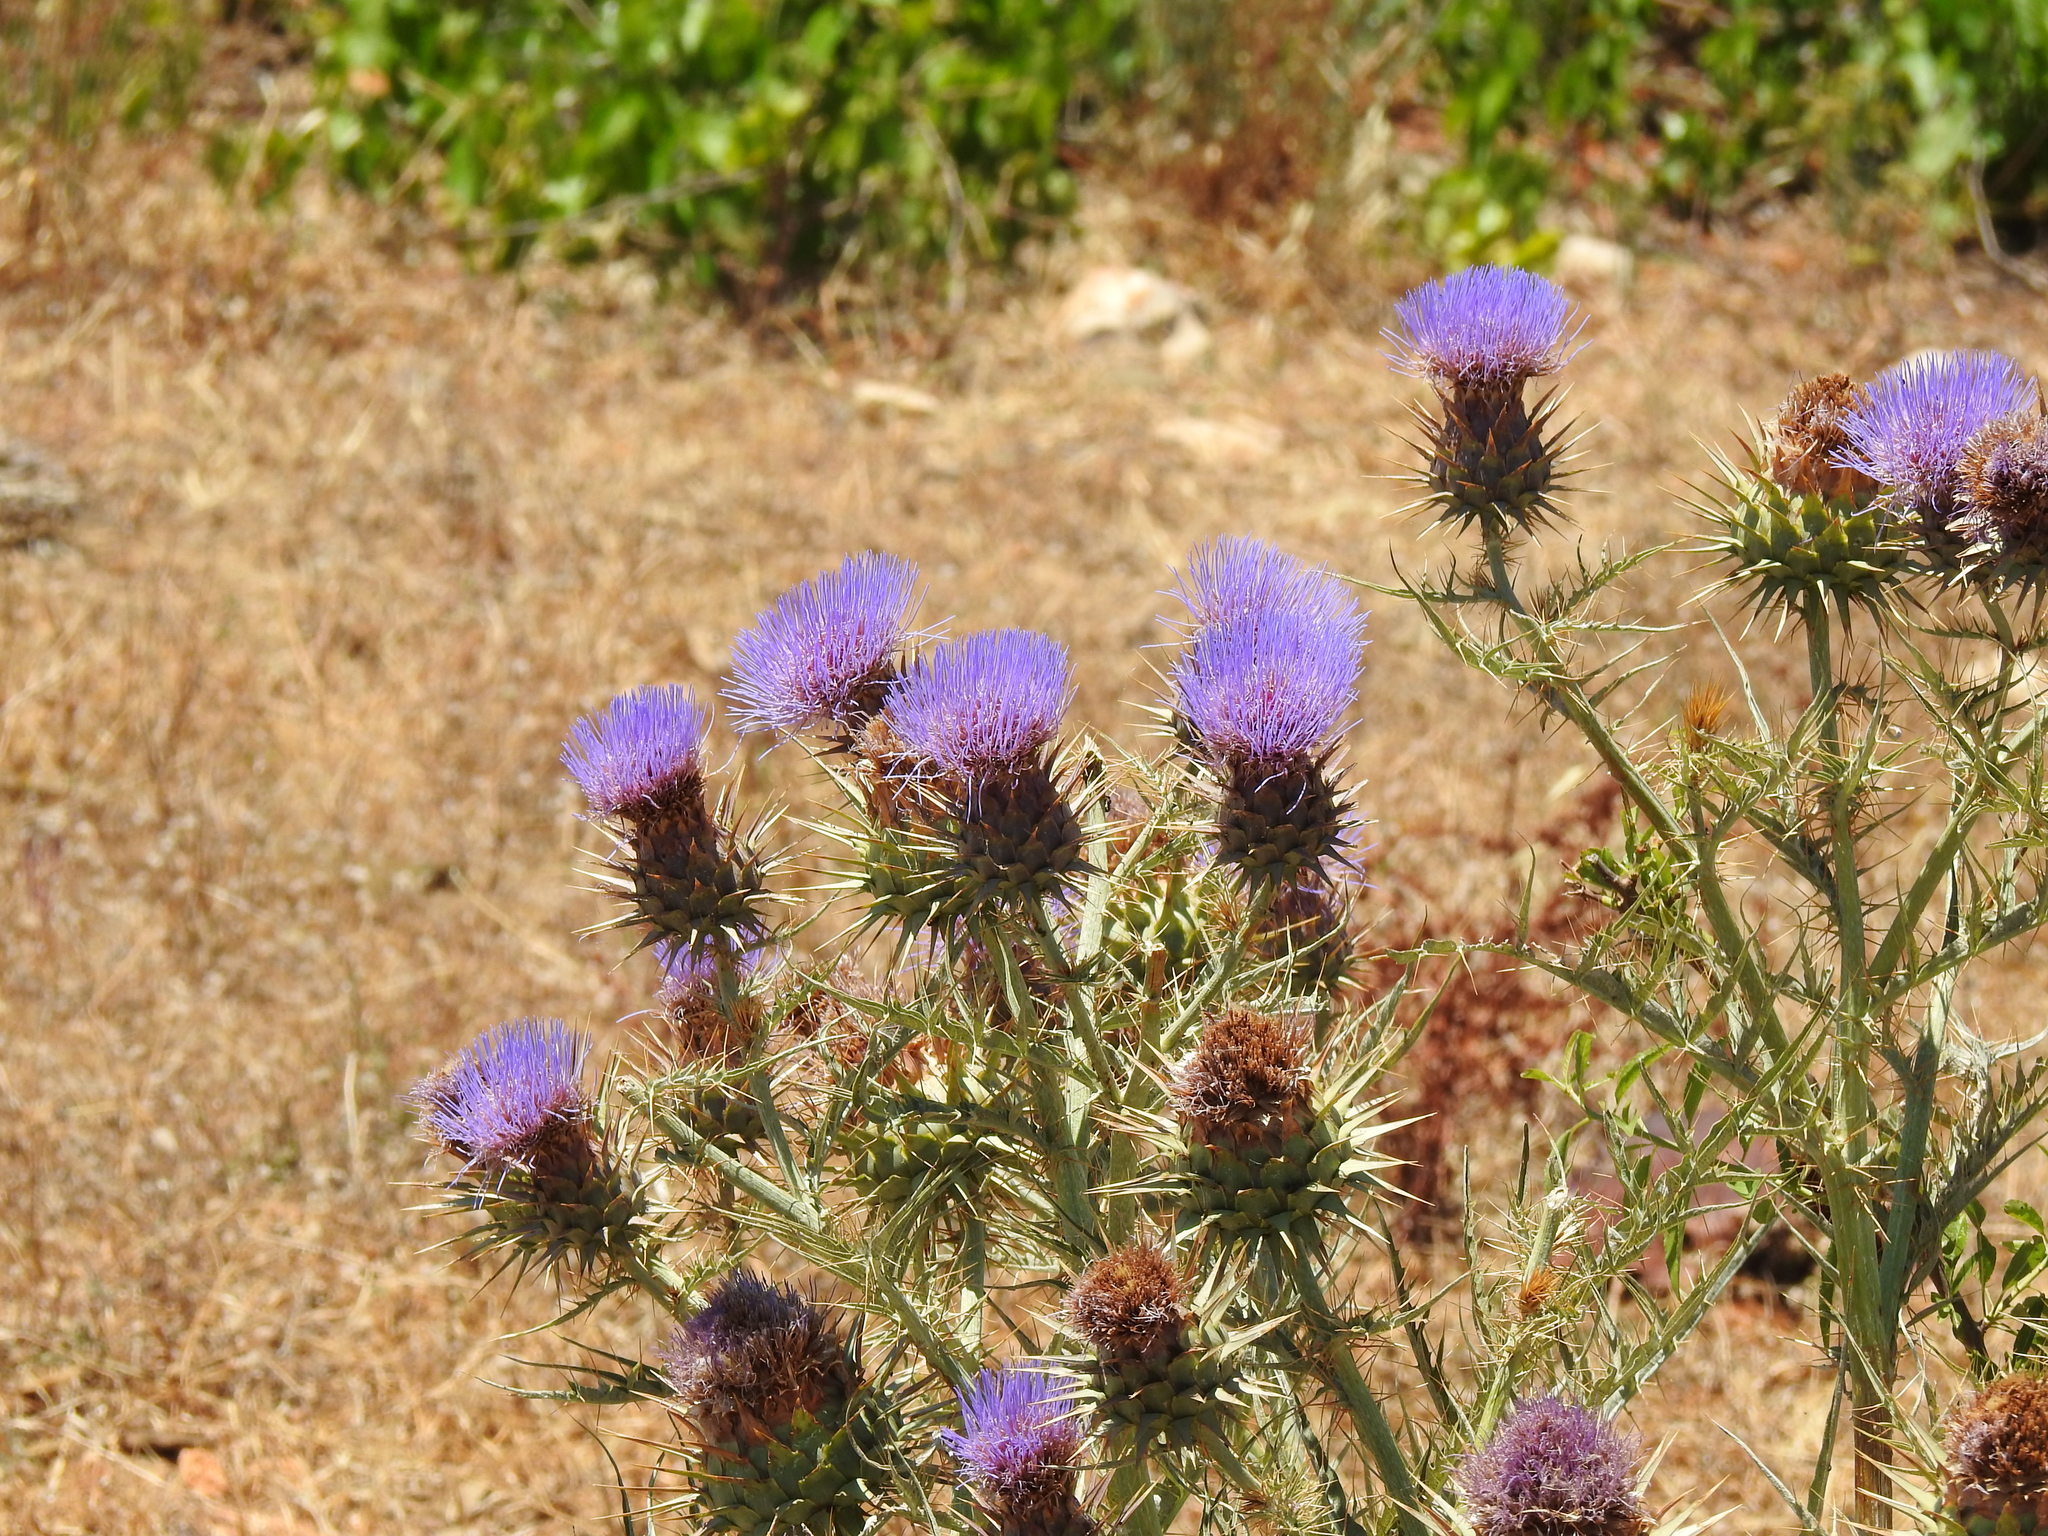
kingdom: Plantae
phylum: Tracheophyta
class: Magnoliopsida
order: Asterales
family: Asteraceae
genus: Cynara
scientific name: Cynara cardunculus
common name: Globe artichoke
